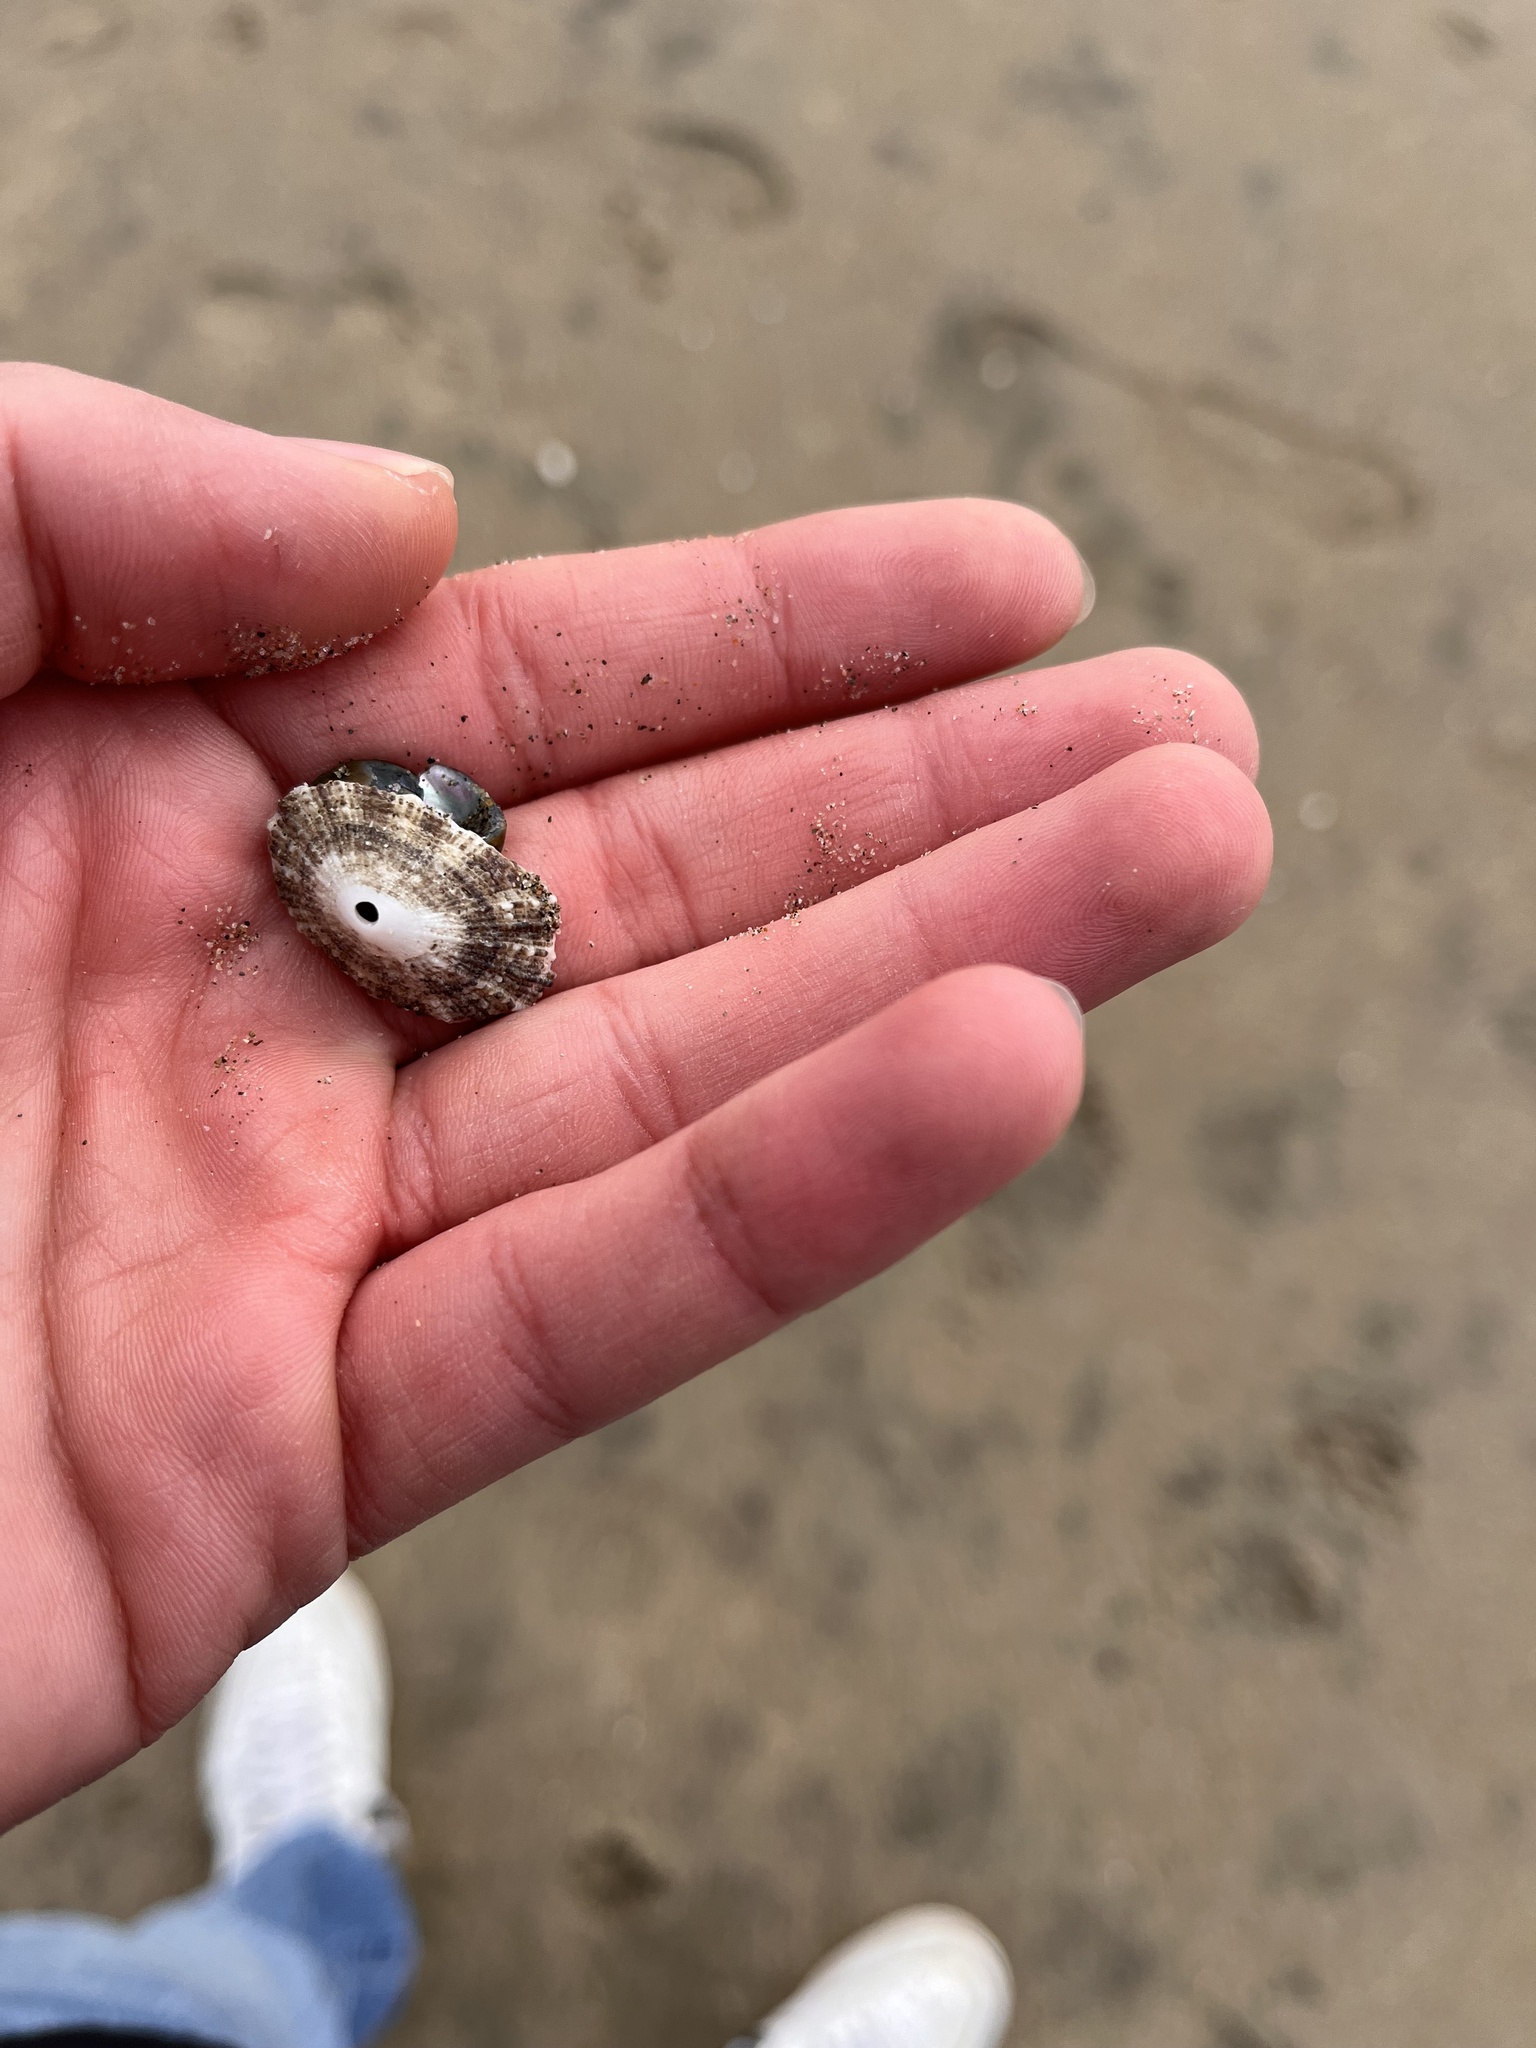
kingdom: Animalia
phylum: Mollusca
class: Gastropoda
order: Lepetellida
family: Fissurellidae
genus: Diodora
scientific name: Diodora aspera
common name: Rough keyhole limpet
